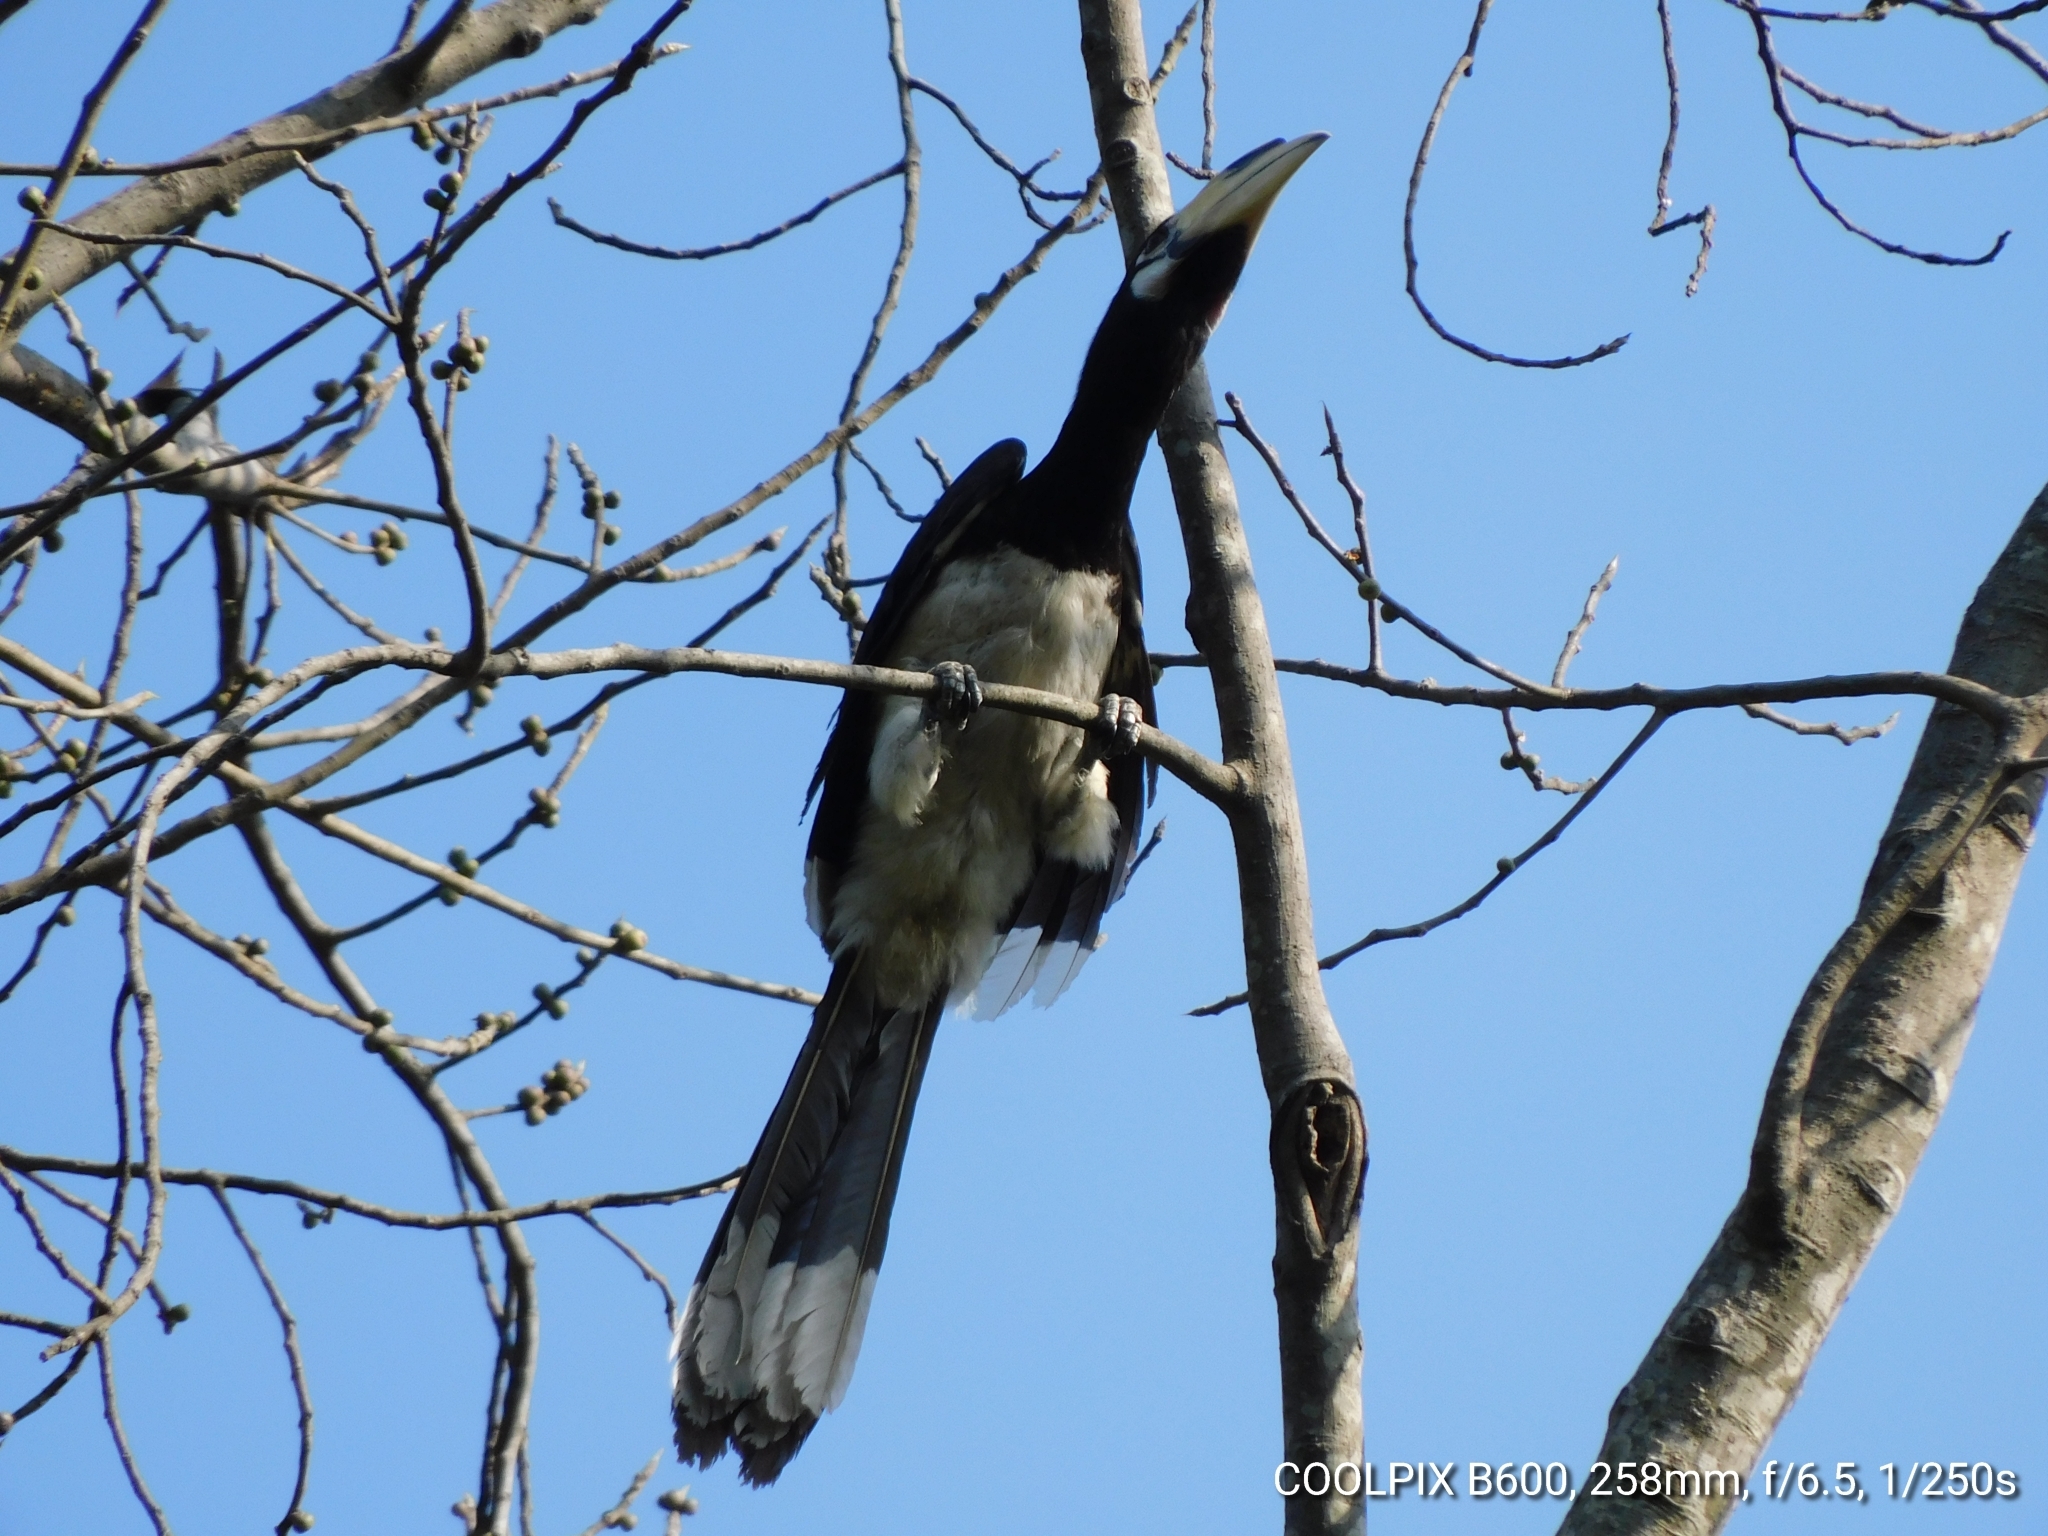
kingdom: Animalia
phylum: Chordata
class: Aves
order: Bucerotiformes
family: Bucerotidae
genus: Anthracoceros
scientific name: Anthracoceros albirostris
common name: Oriental pied-hornbill
